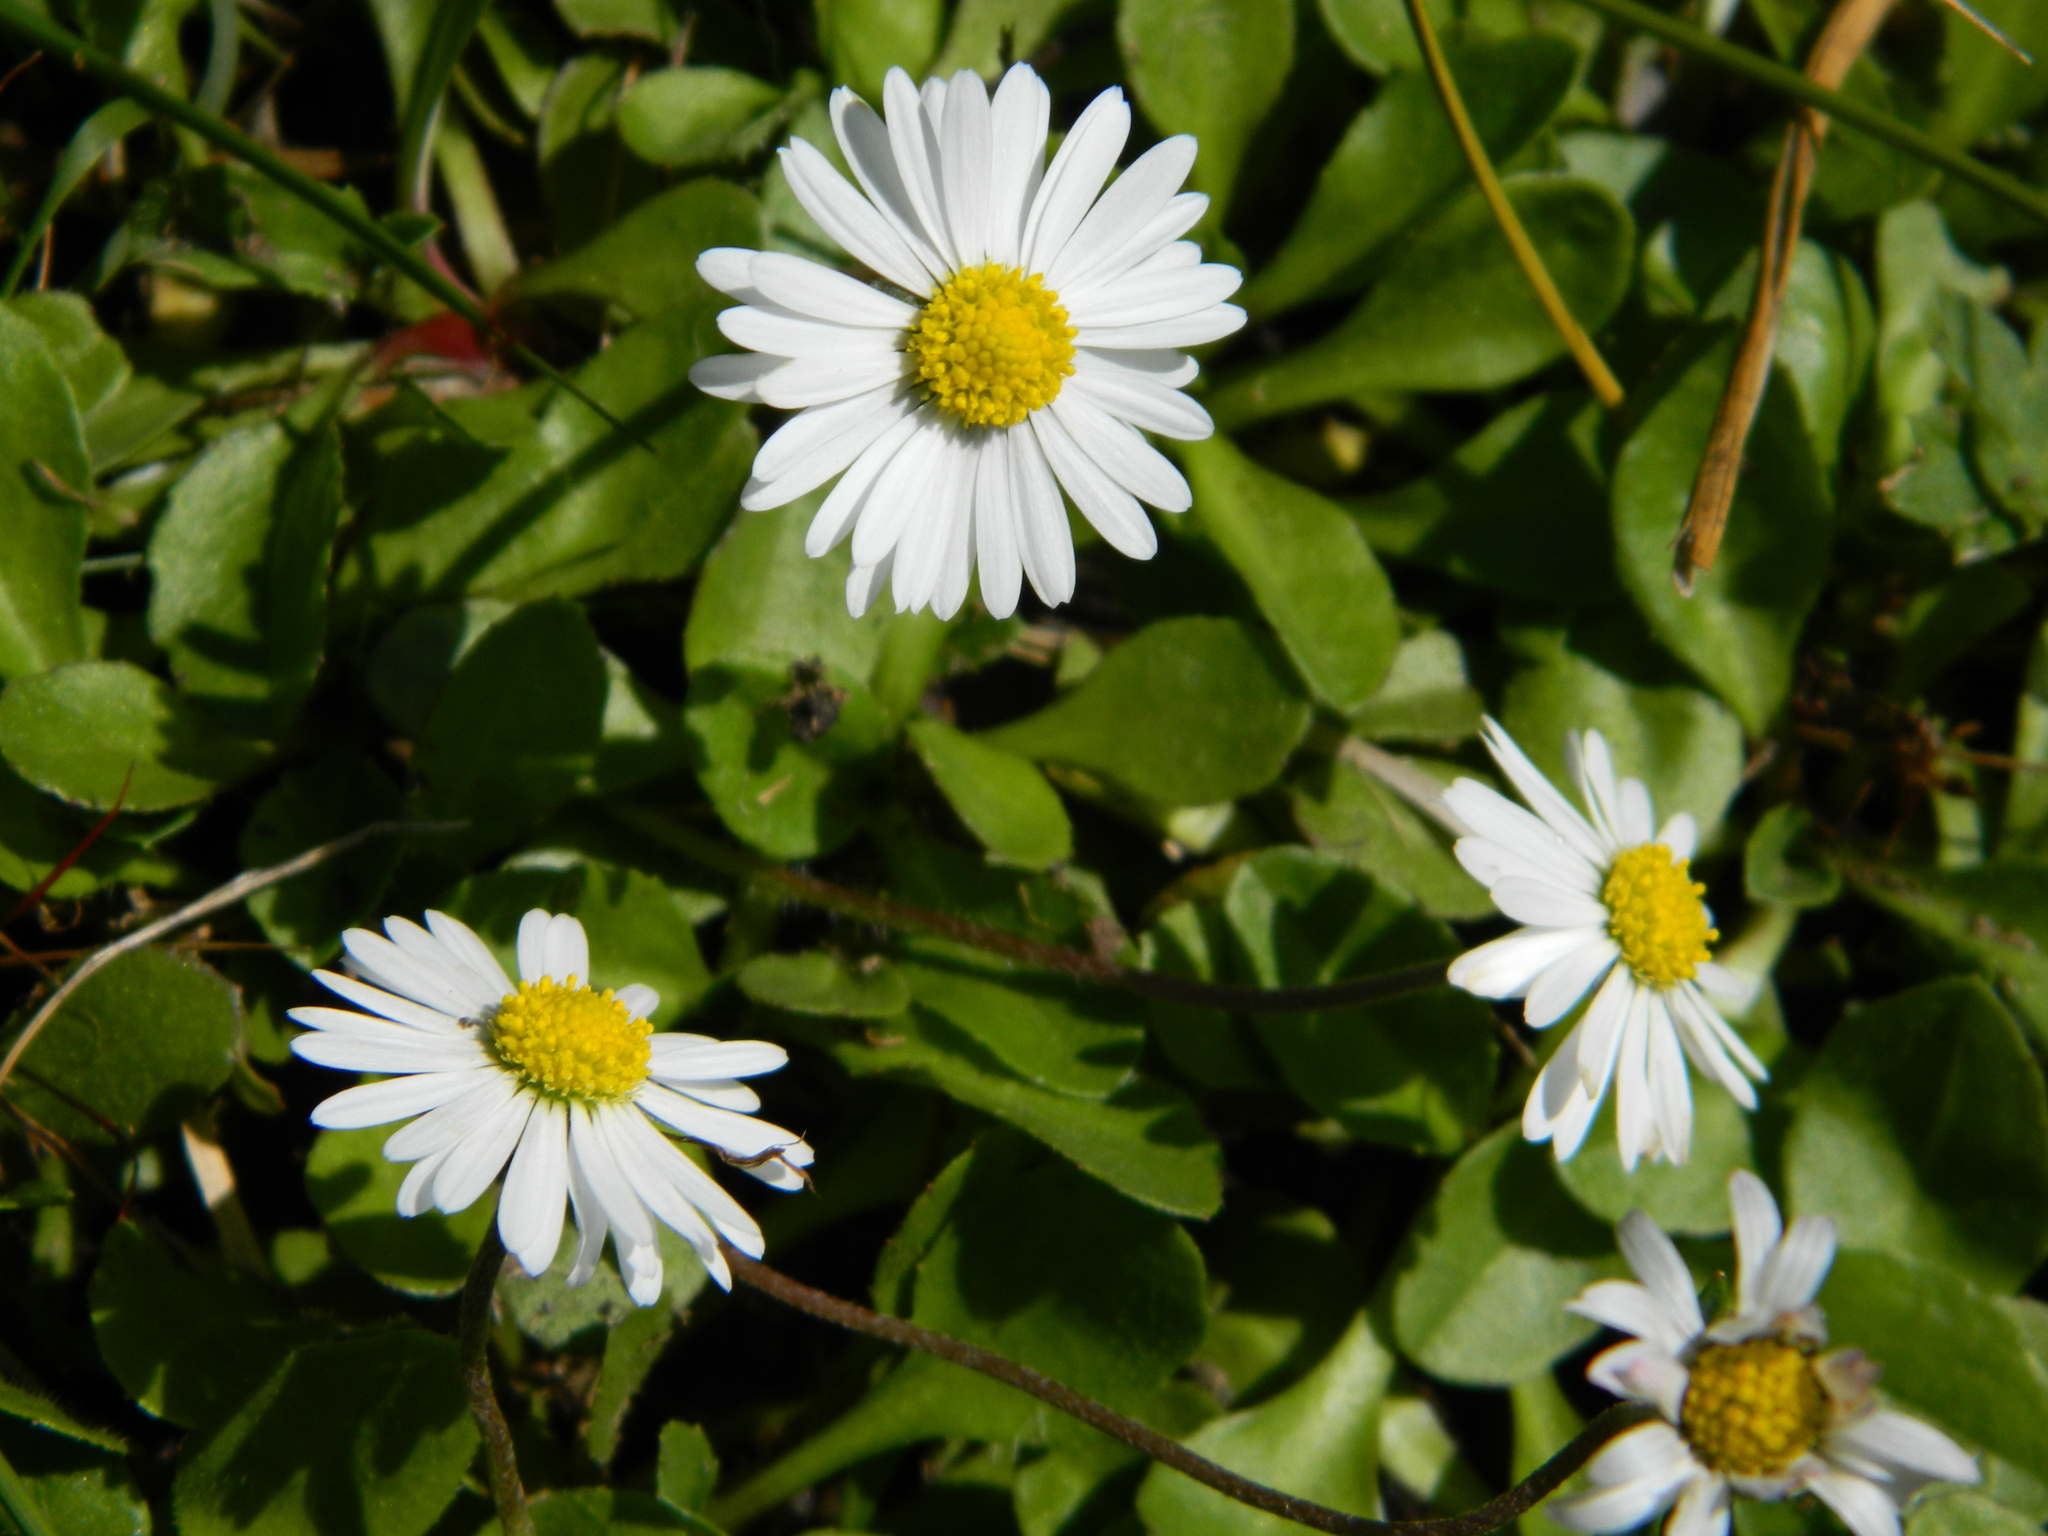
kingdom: Plantae
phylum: Tracheophyta
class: Magnoliopsida
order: Asterales
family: Asteraceae
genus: Bellis
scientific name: Bellis perennis
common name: Lawndaisy
